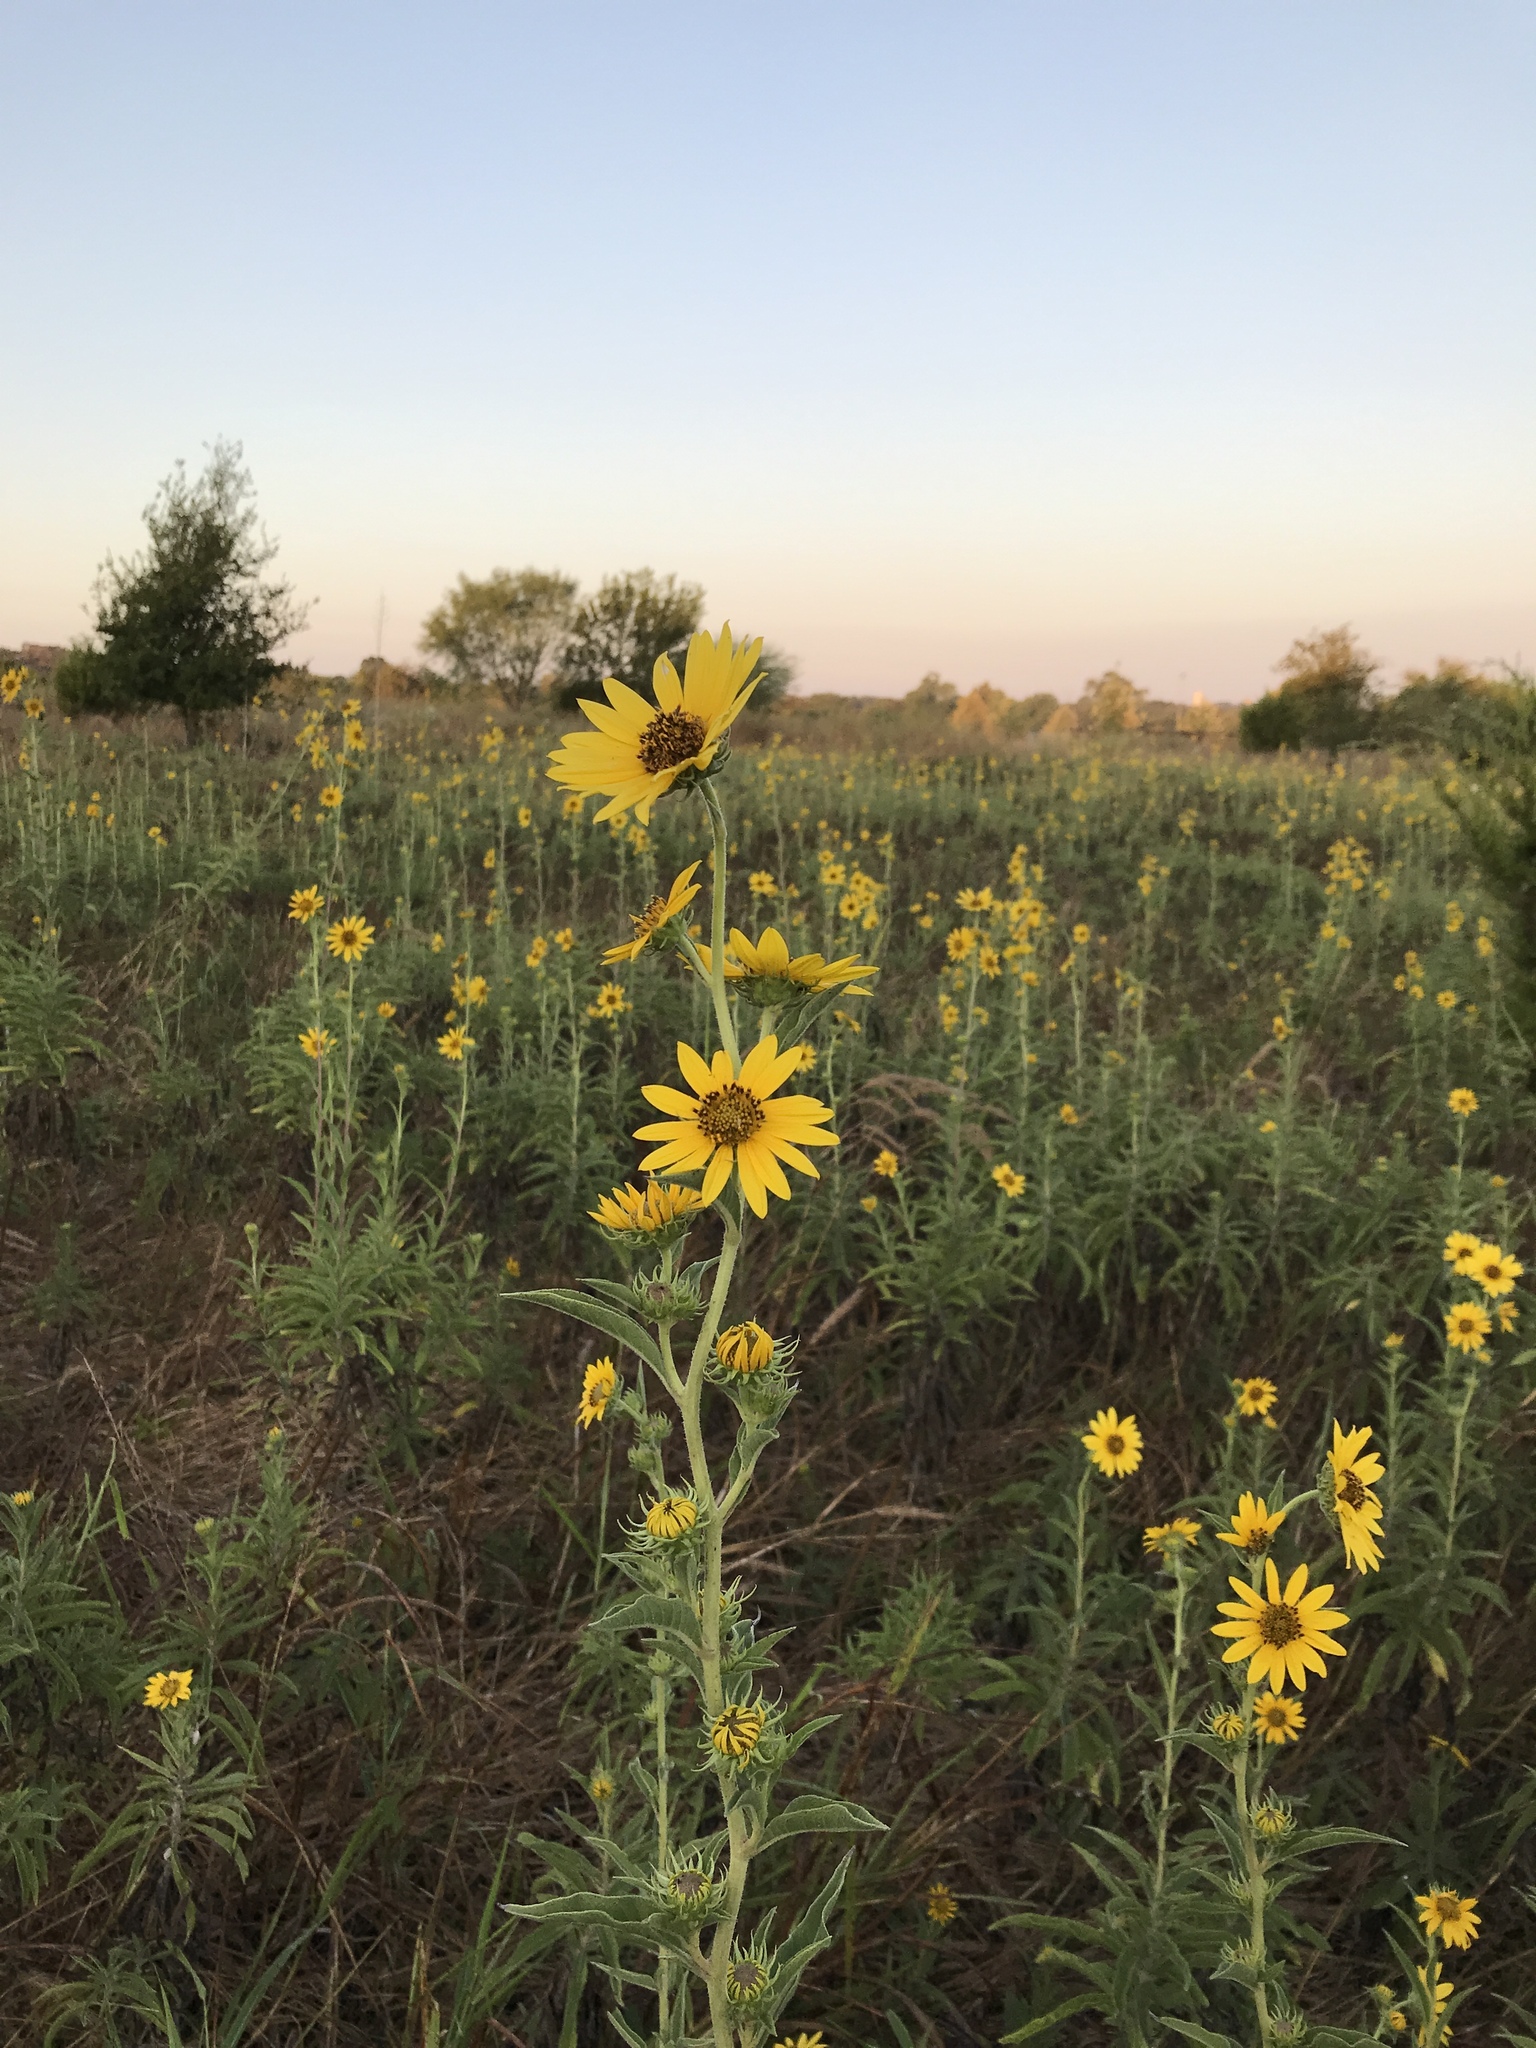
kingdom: Plantae
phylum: Tracheophyta
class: Magnoliopsida
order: Asterales
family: Asteraceae
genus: Helianthus
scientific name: Helianthus maximiliani
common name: Maximilian's sunflower
